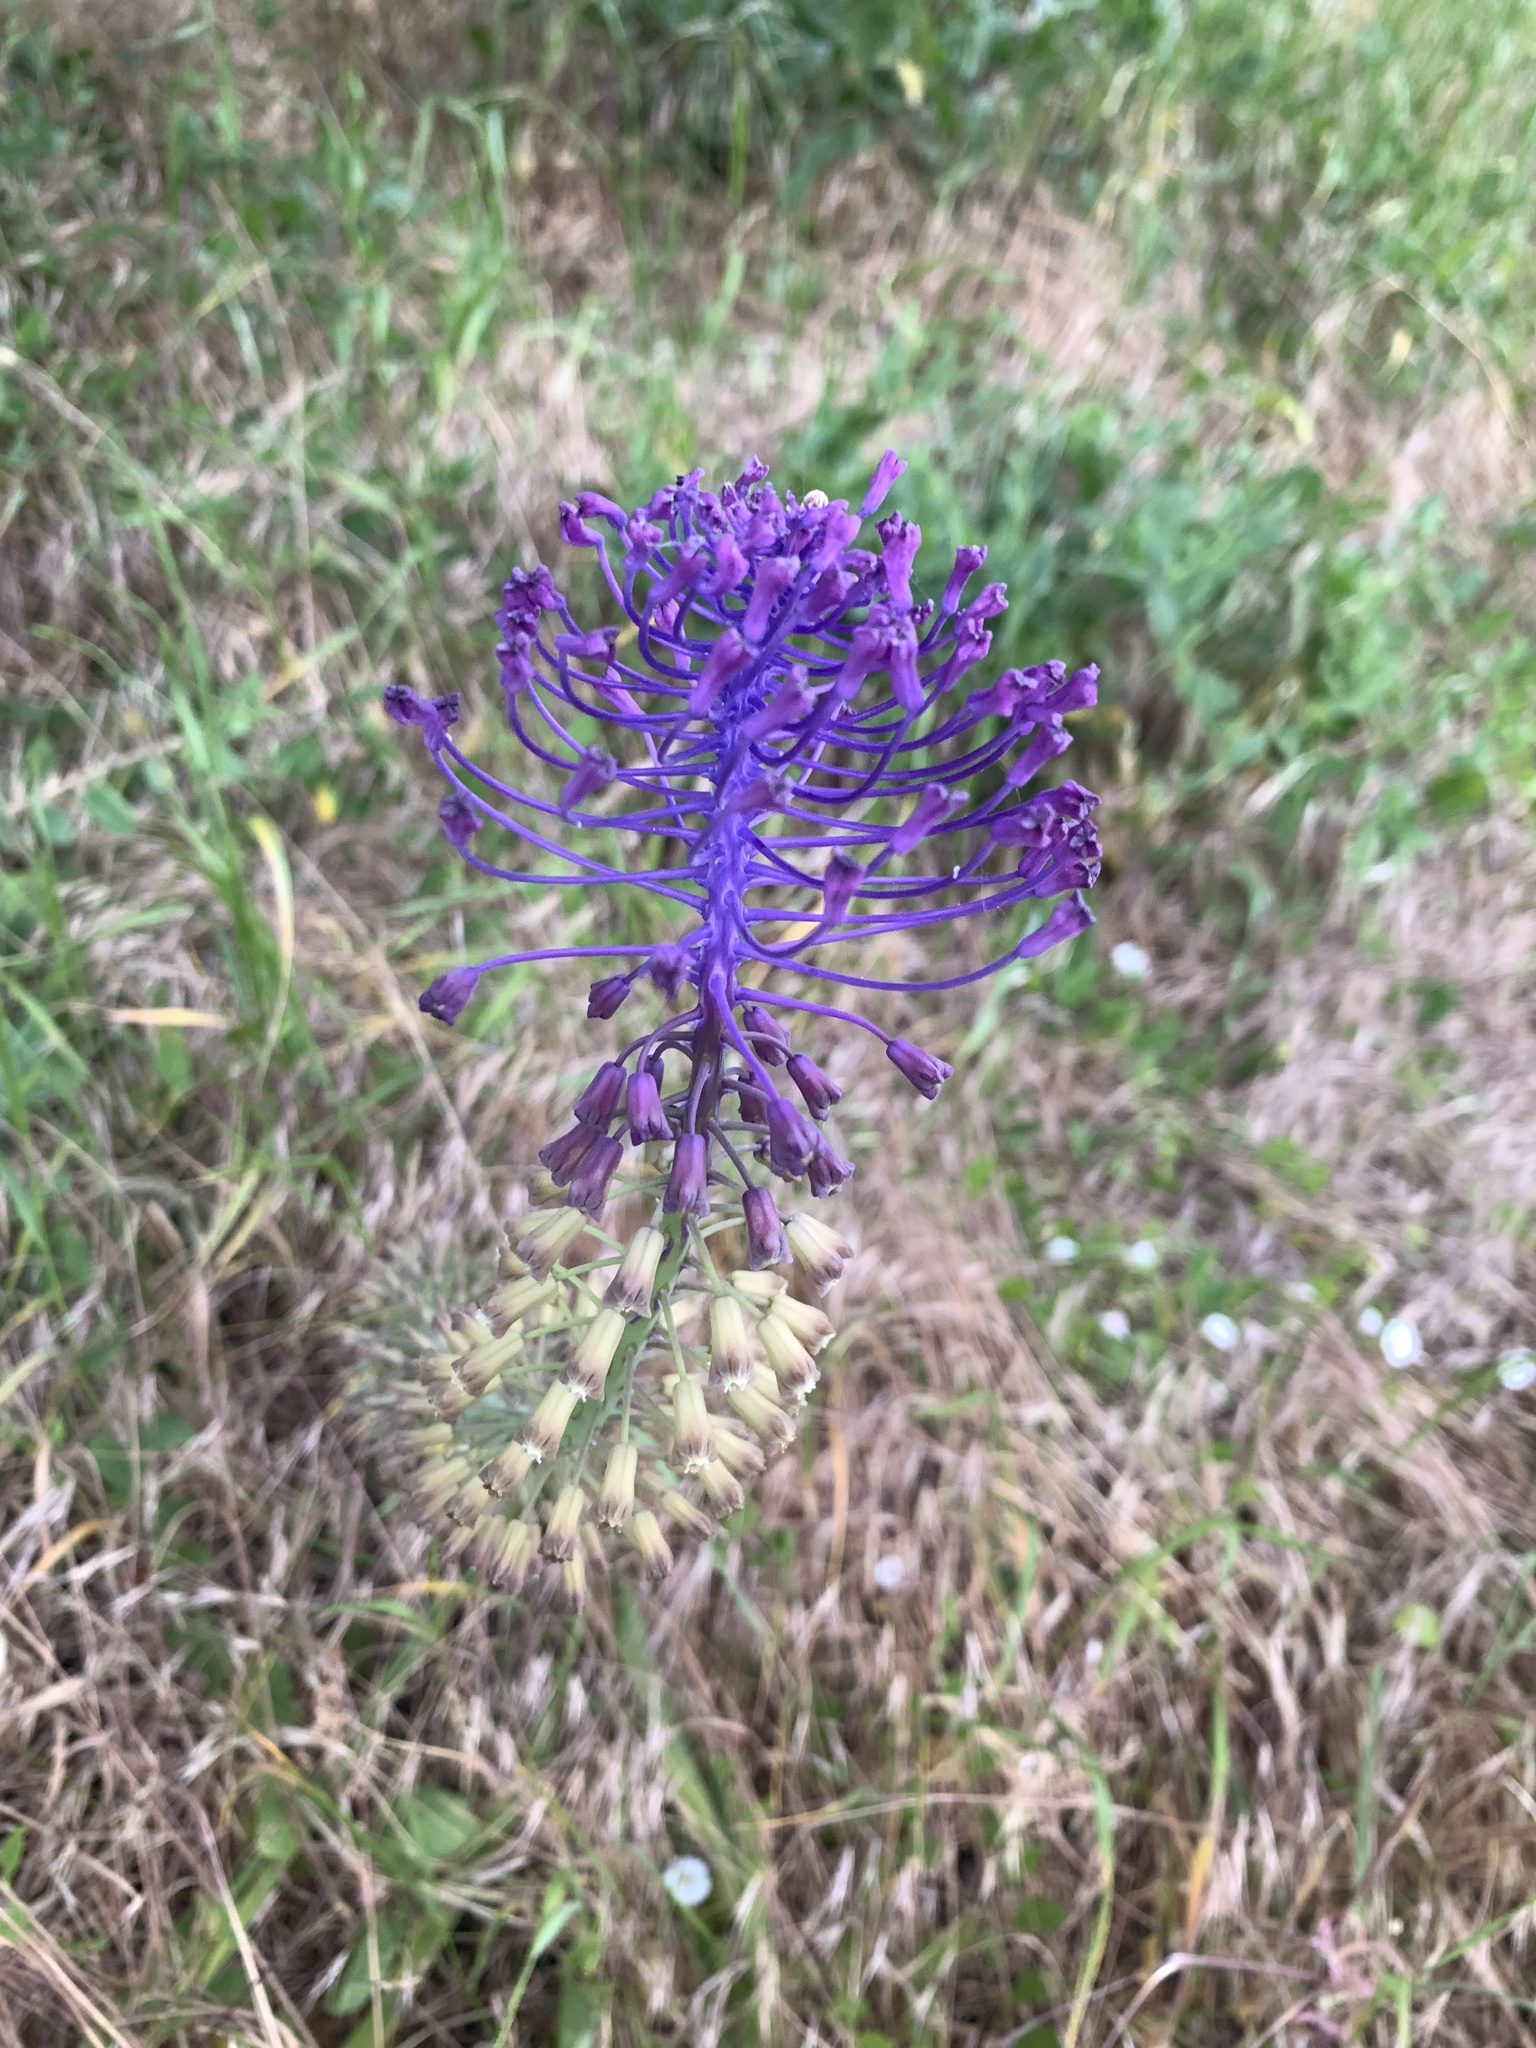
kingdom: Plantae
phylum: Tracheophyta
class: Liliopsida
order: Asparagales
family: Asparagaceae
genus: Muscari
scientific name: Muscari comosum
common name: Tassel hyacinth
